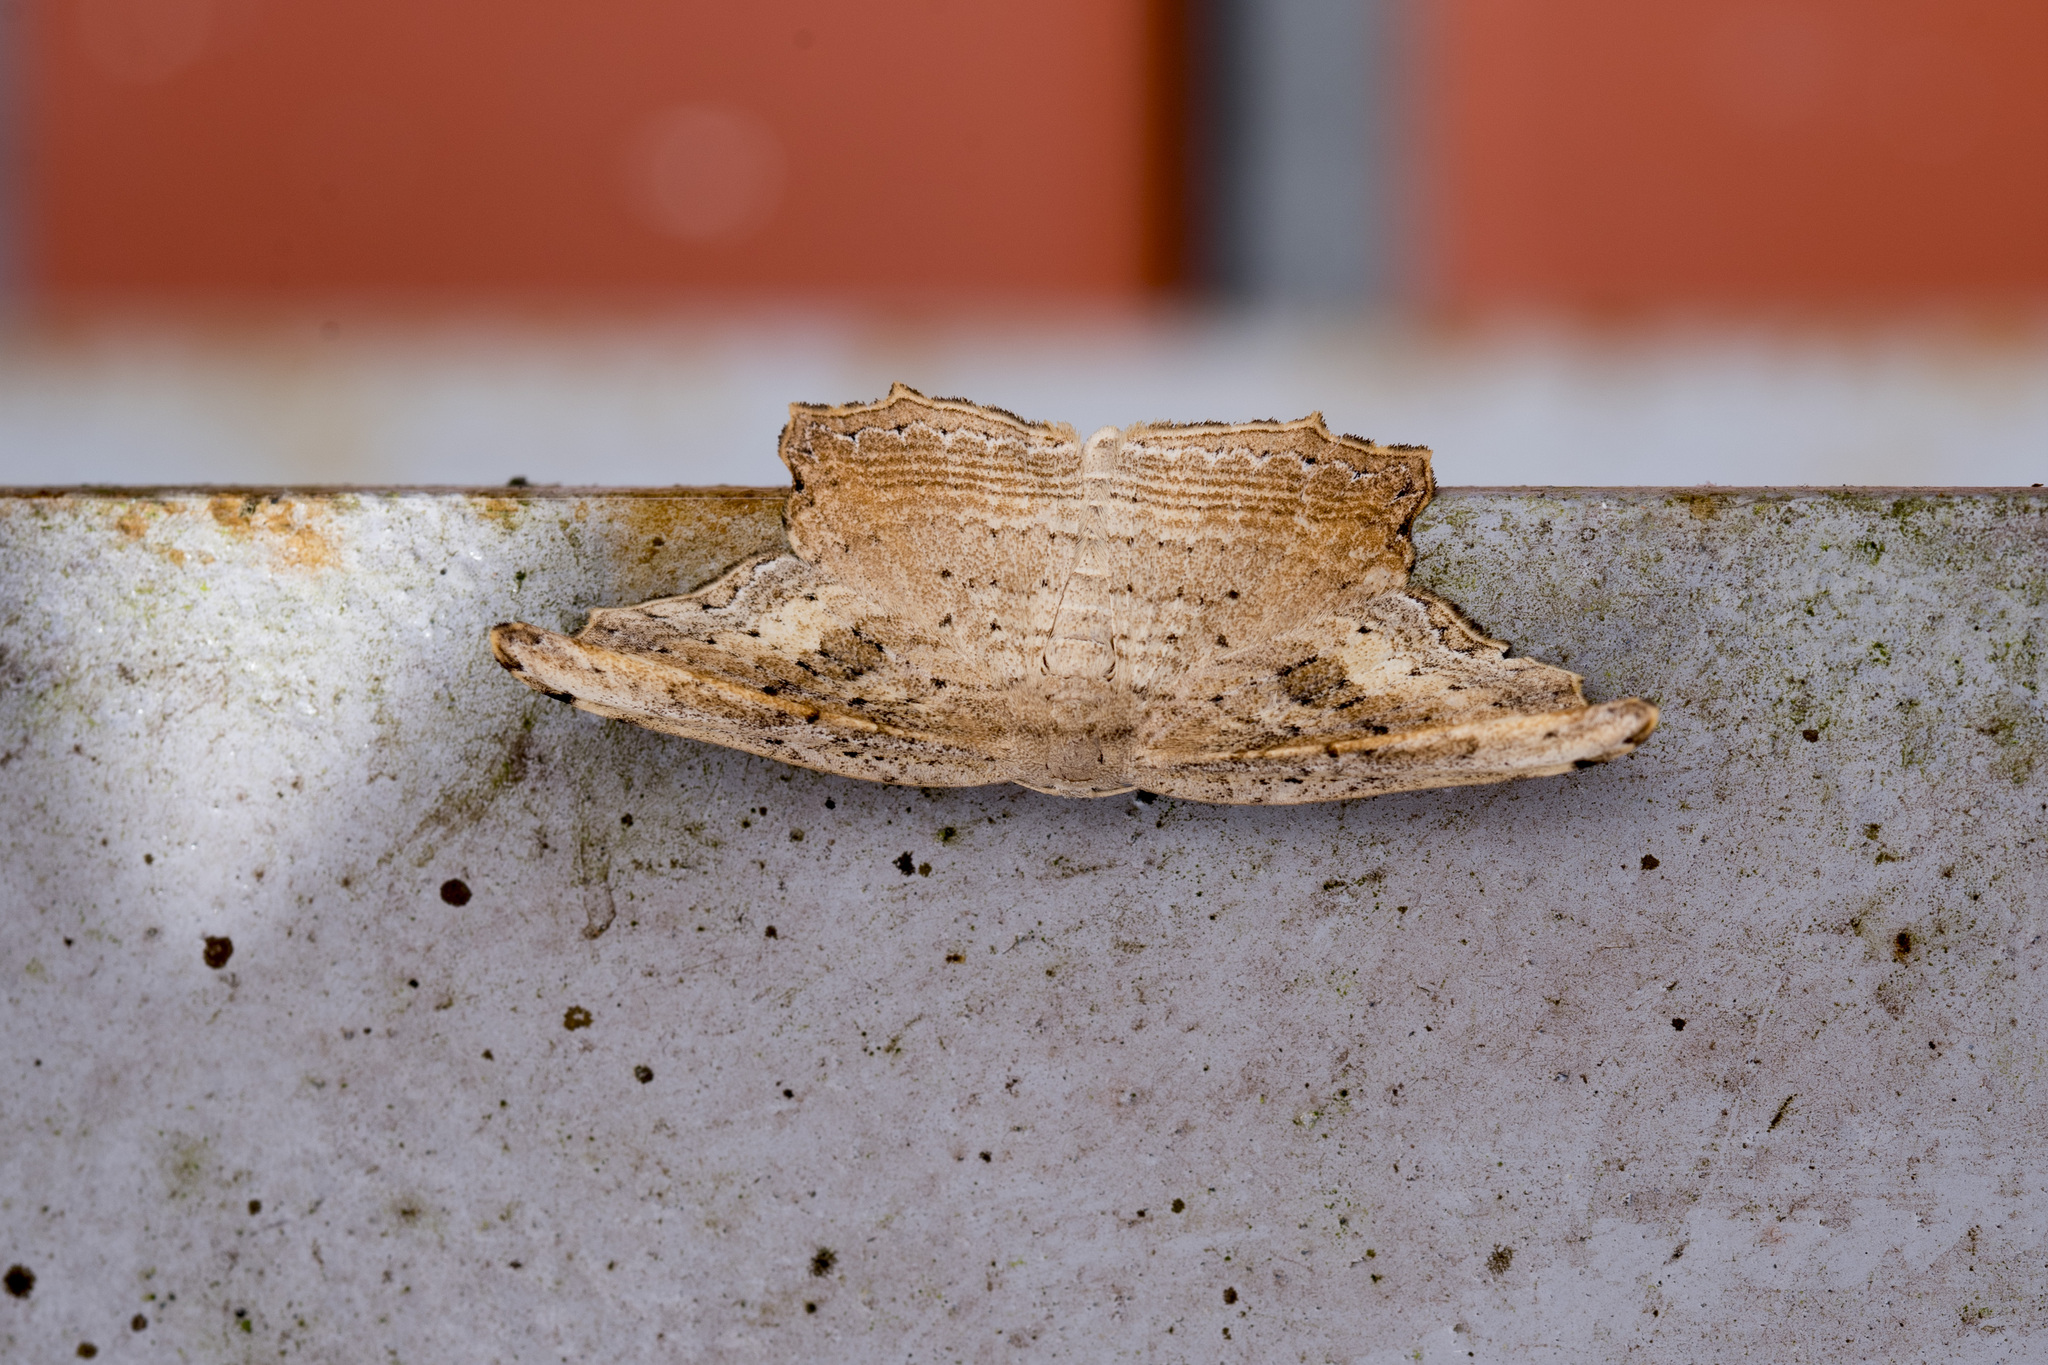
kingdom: Animalia
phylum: Arthropoda
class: Insecta
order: Lepidoptera
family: Drepanidae
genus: Phalacra
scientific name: Phalacra strigata
